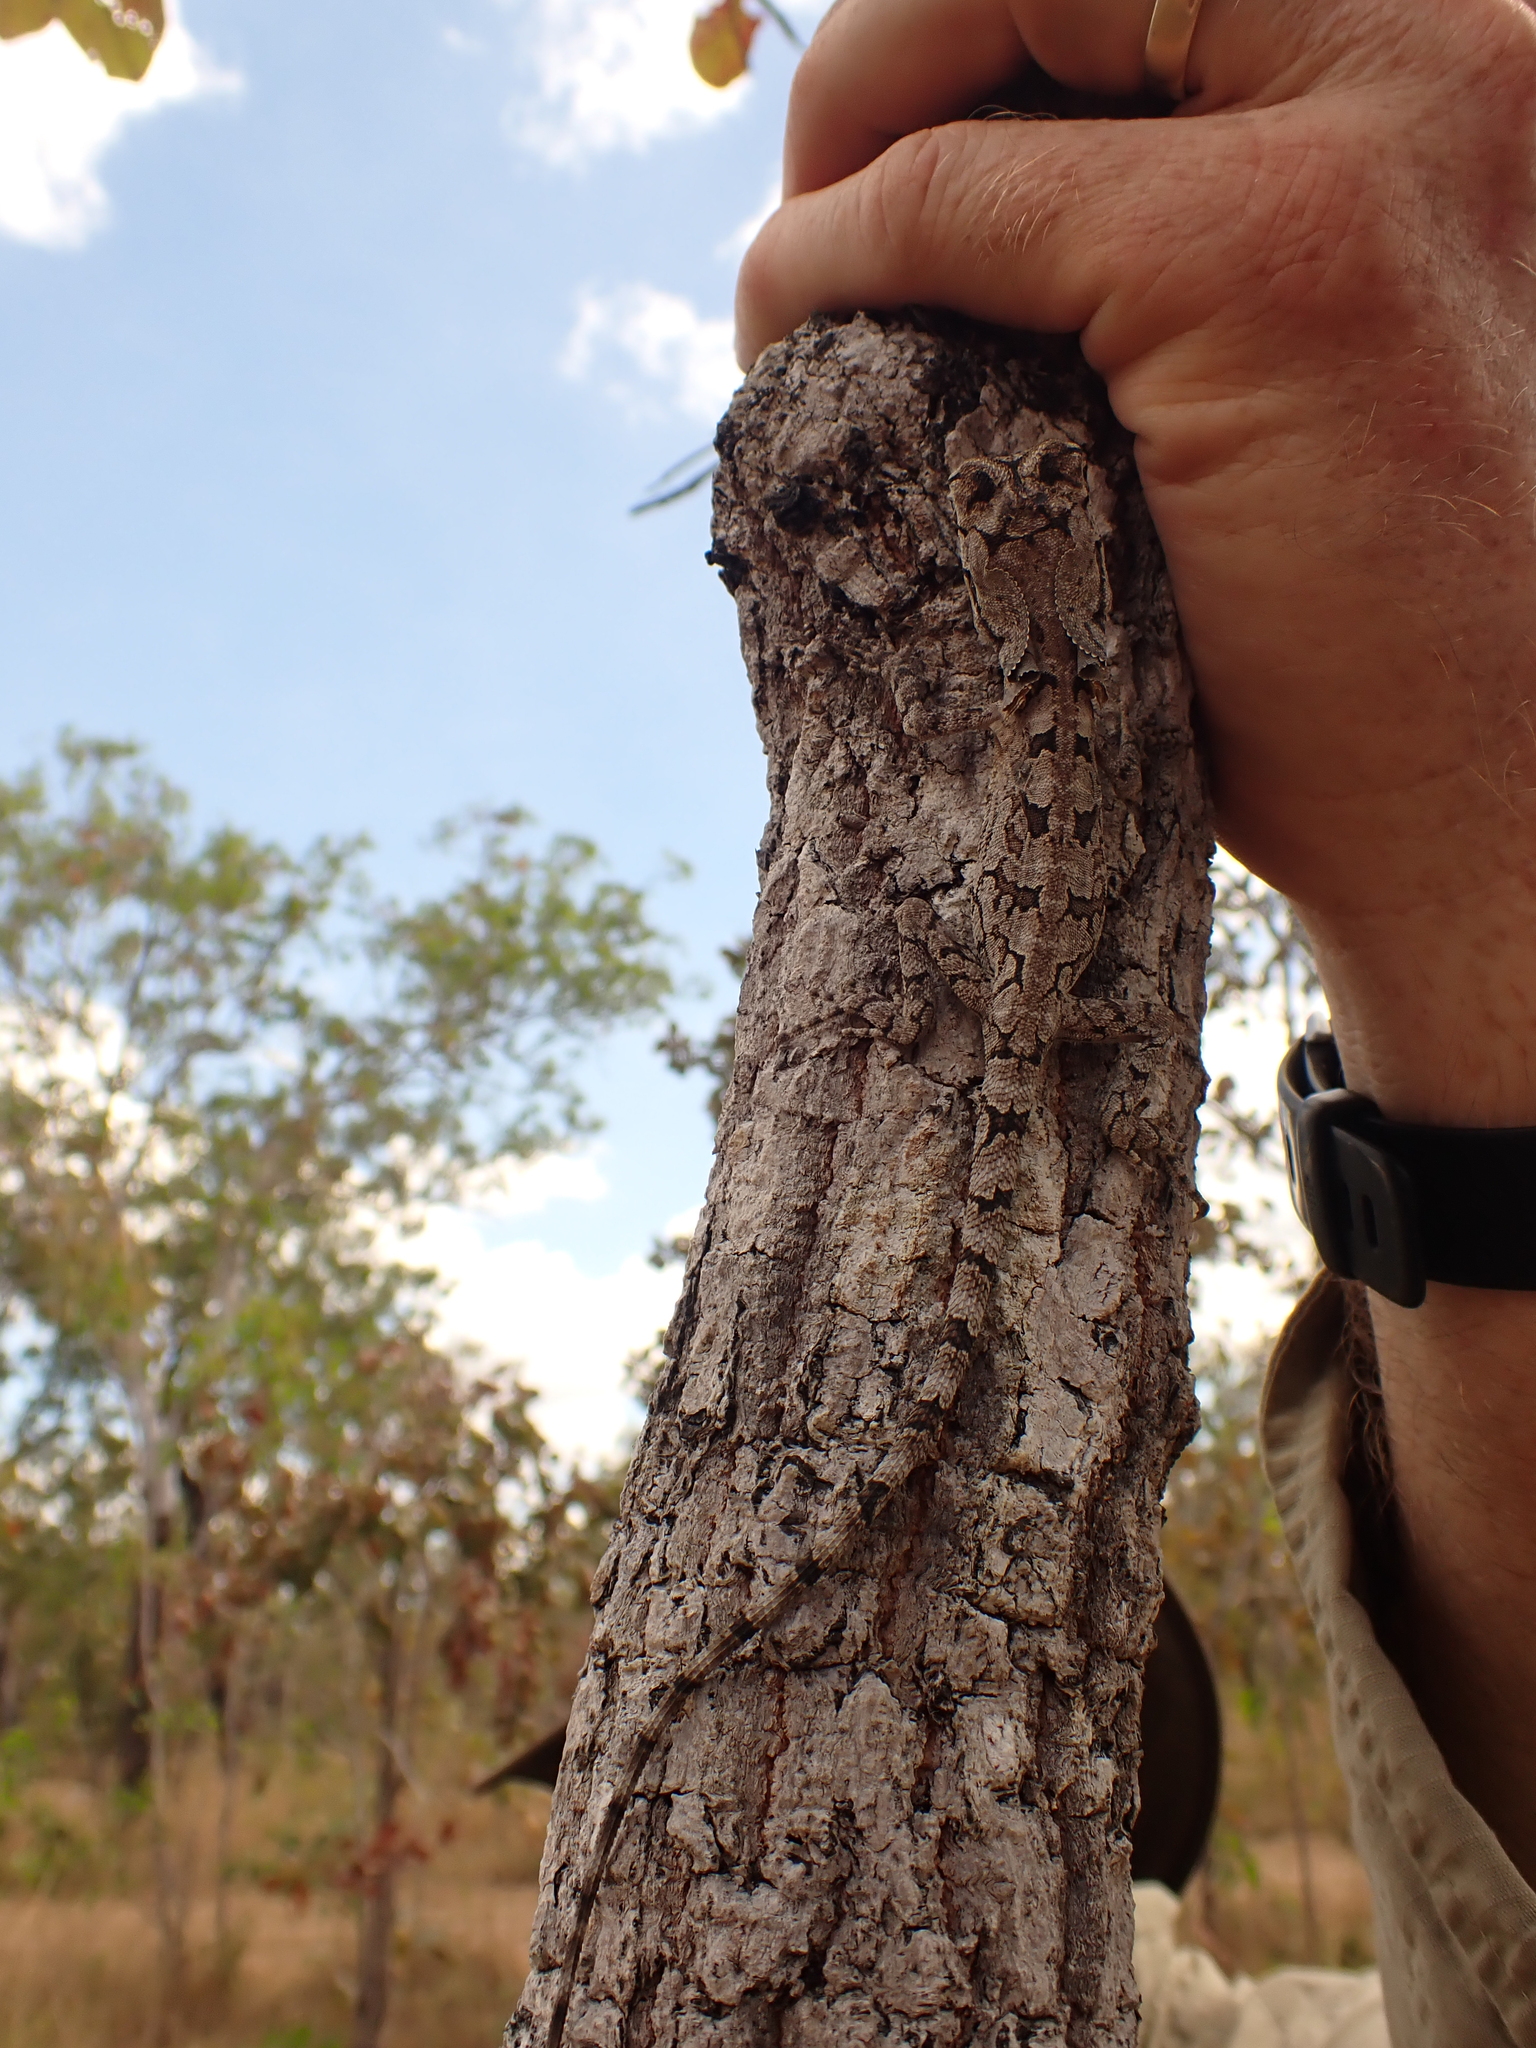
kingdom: Animalia
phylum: Chordata
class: Squamata
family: Agamidae
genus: Chlamydosaurus
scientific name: Chlamydosaurus kingii
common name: Frilled lizard
